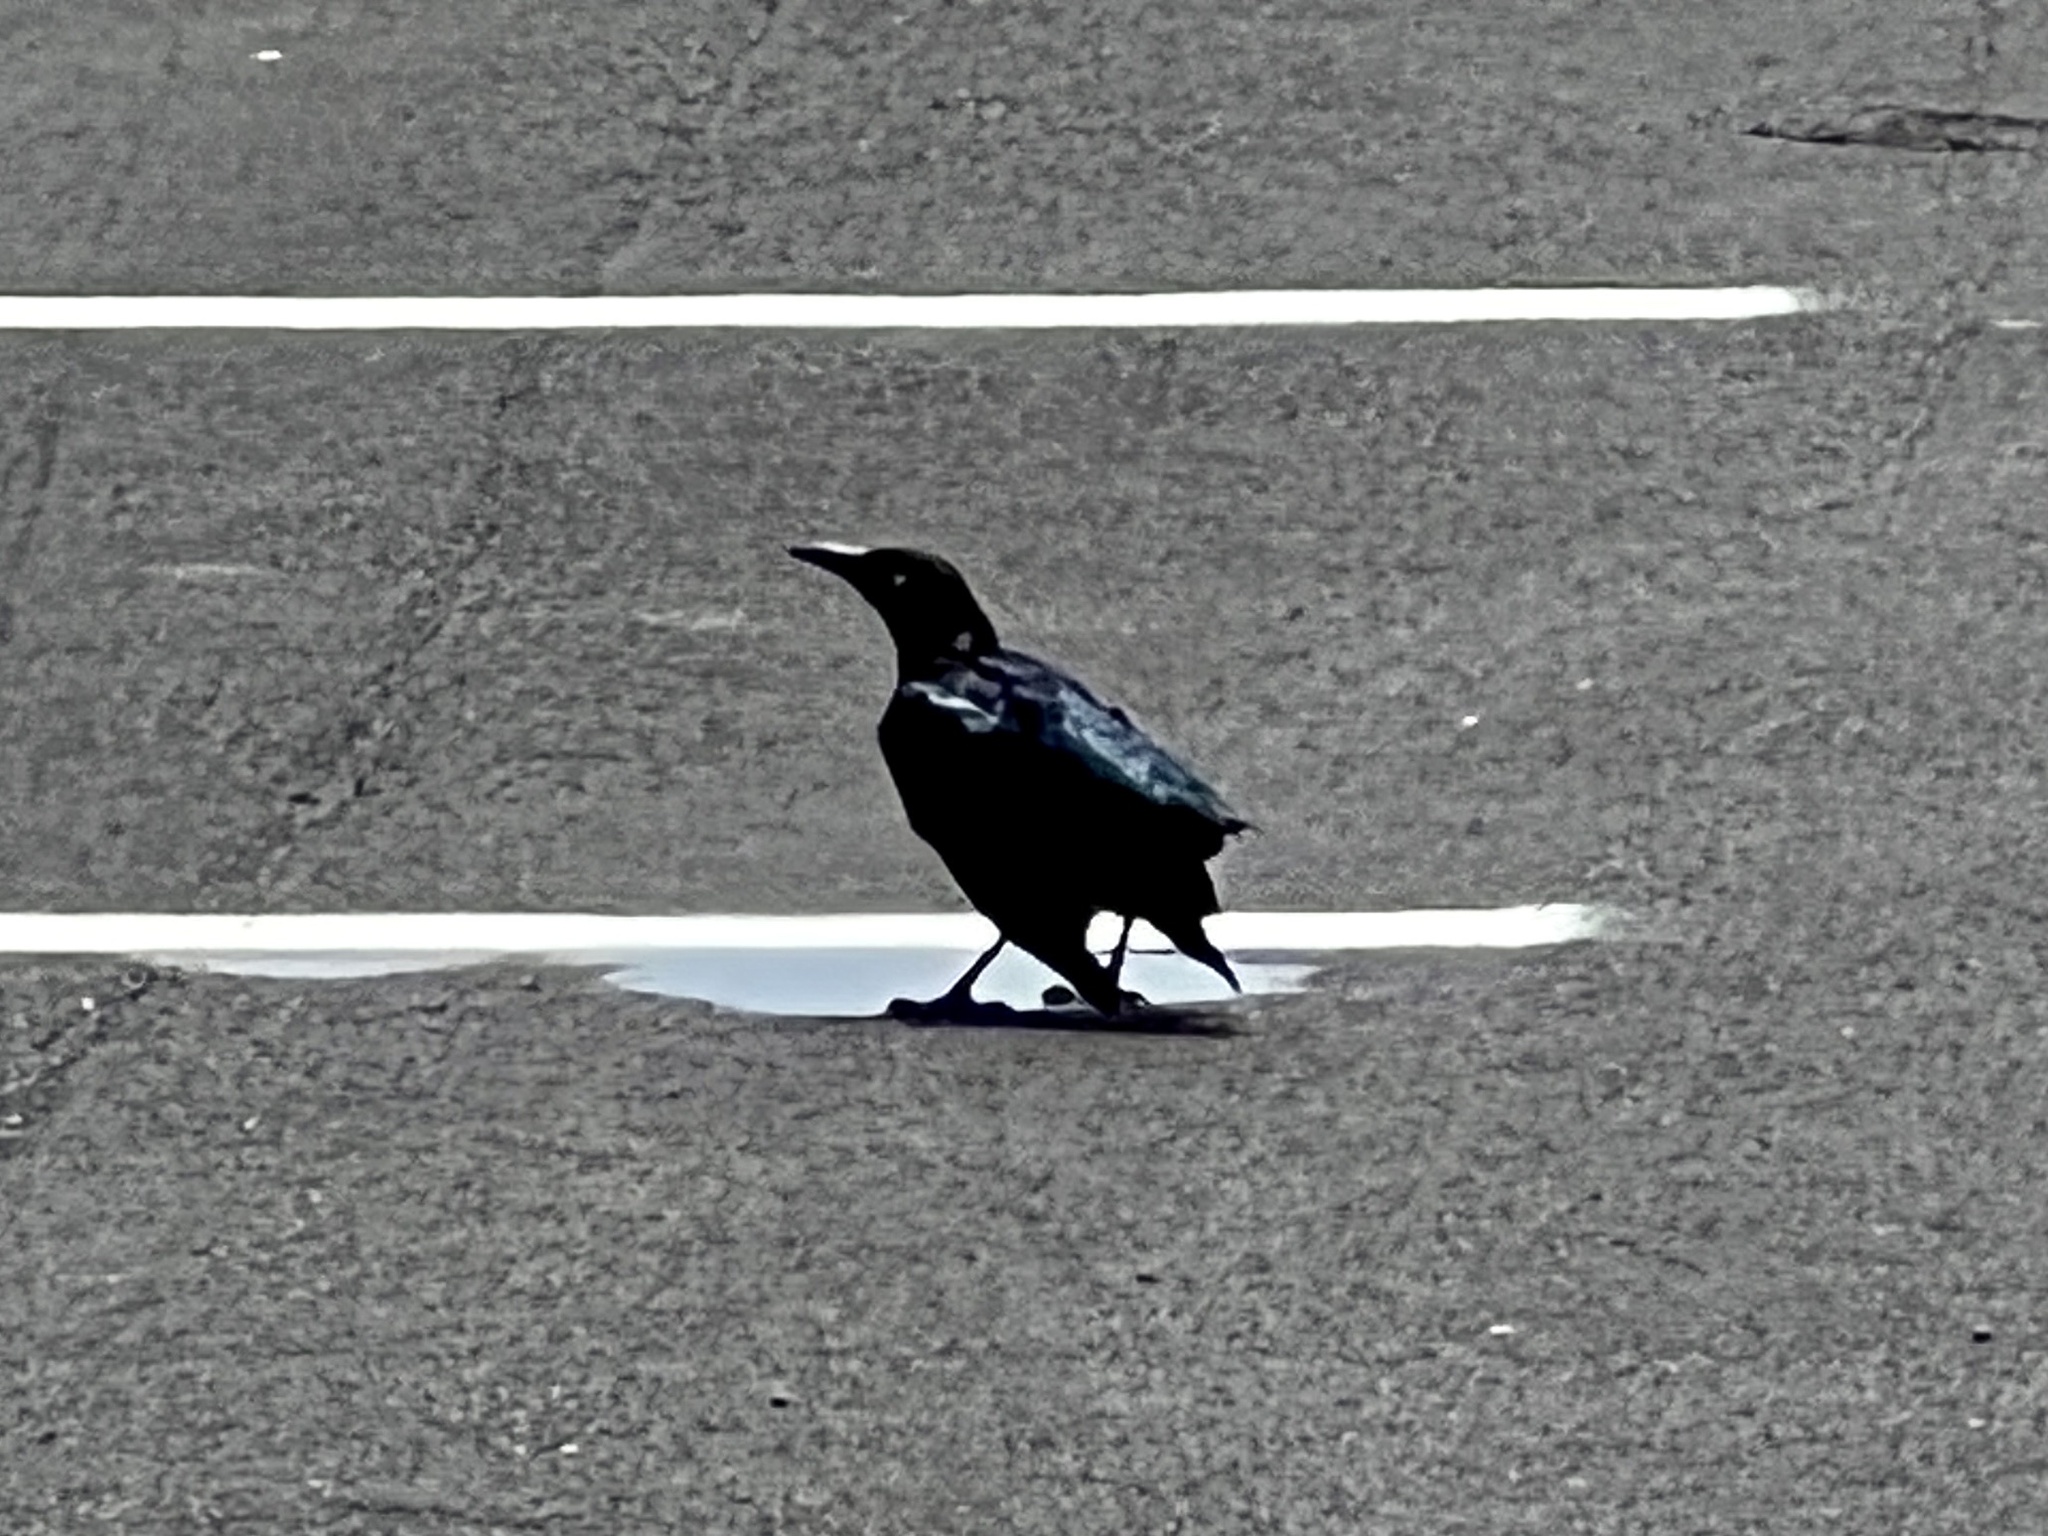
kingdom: Animalia
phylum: Chordata
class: Aves
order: Passeriformes
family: Icteridae
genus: Quiscalus
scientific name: Quiscalus mexicanus
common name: Great-tailed grackle
